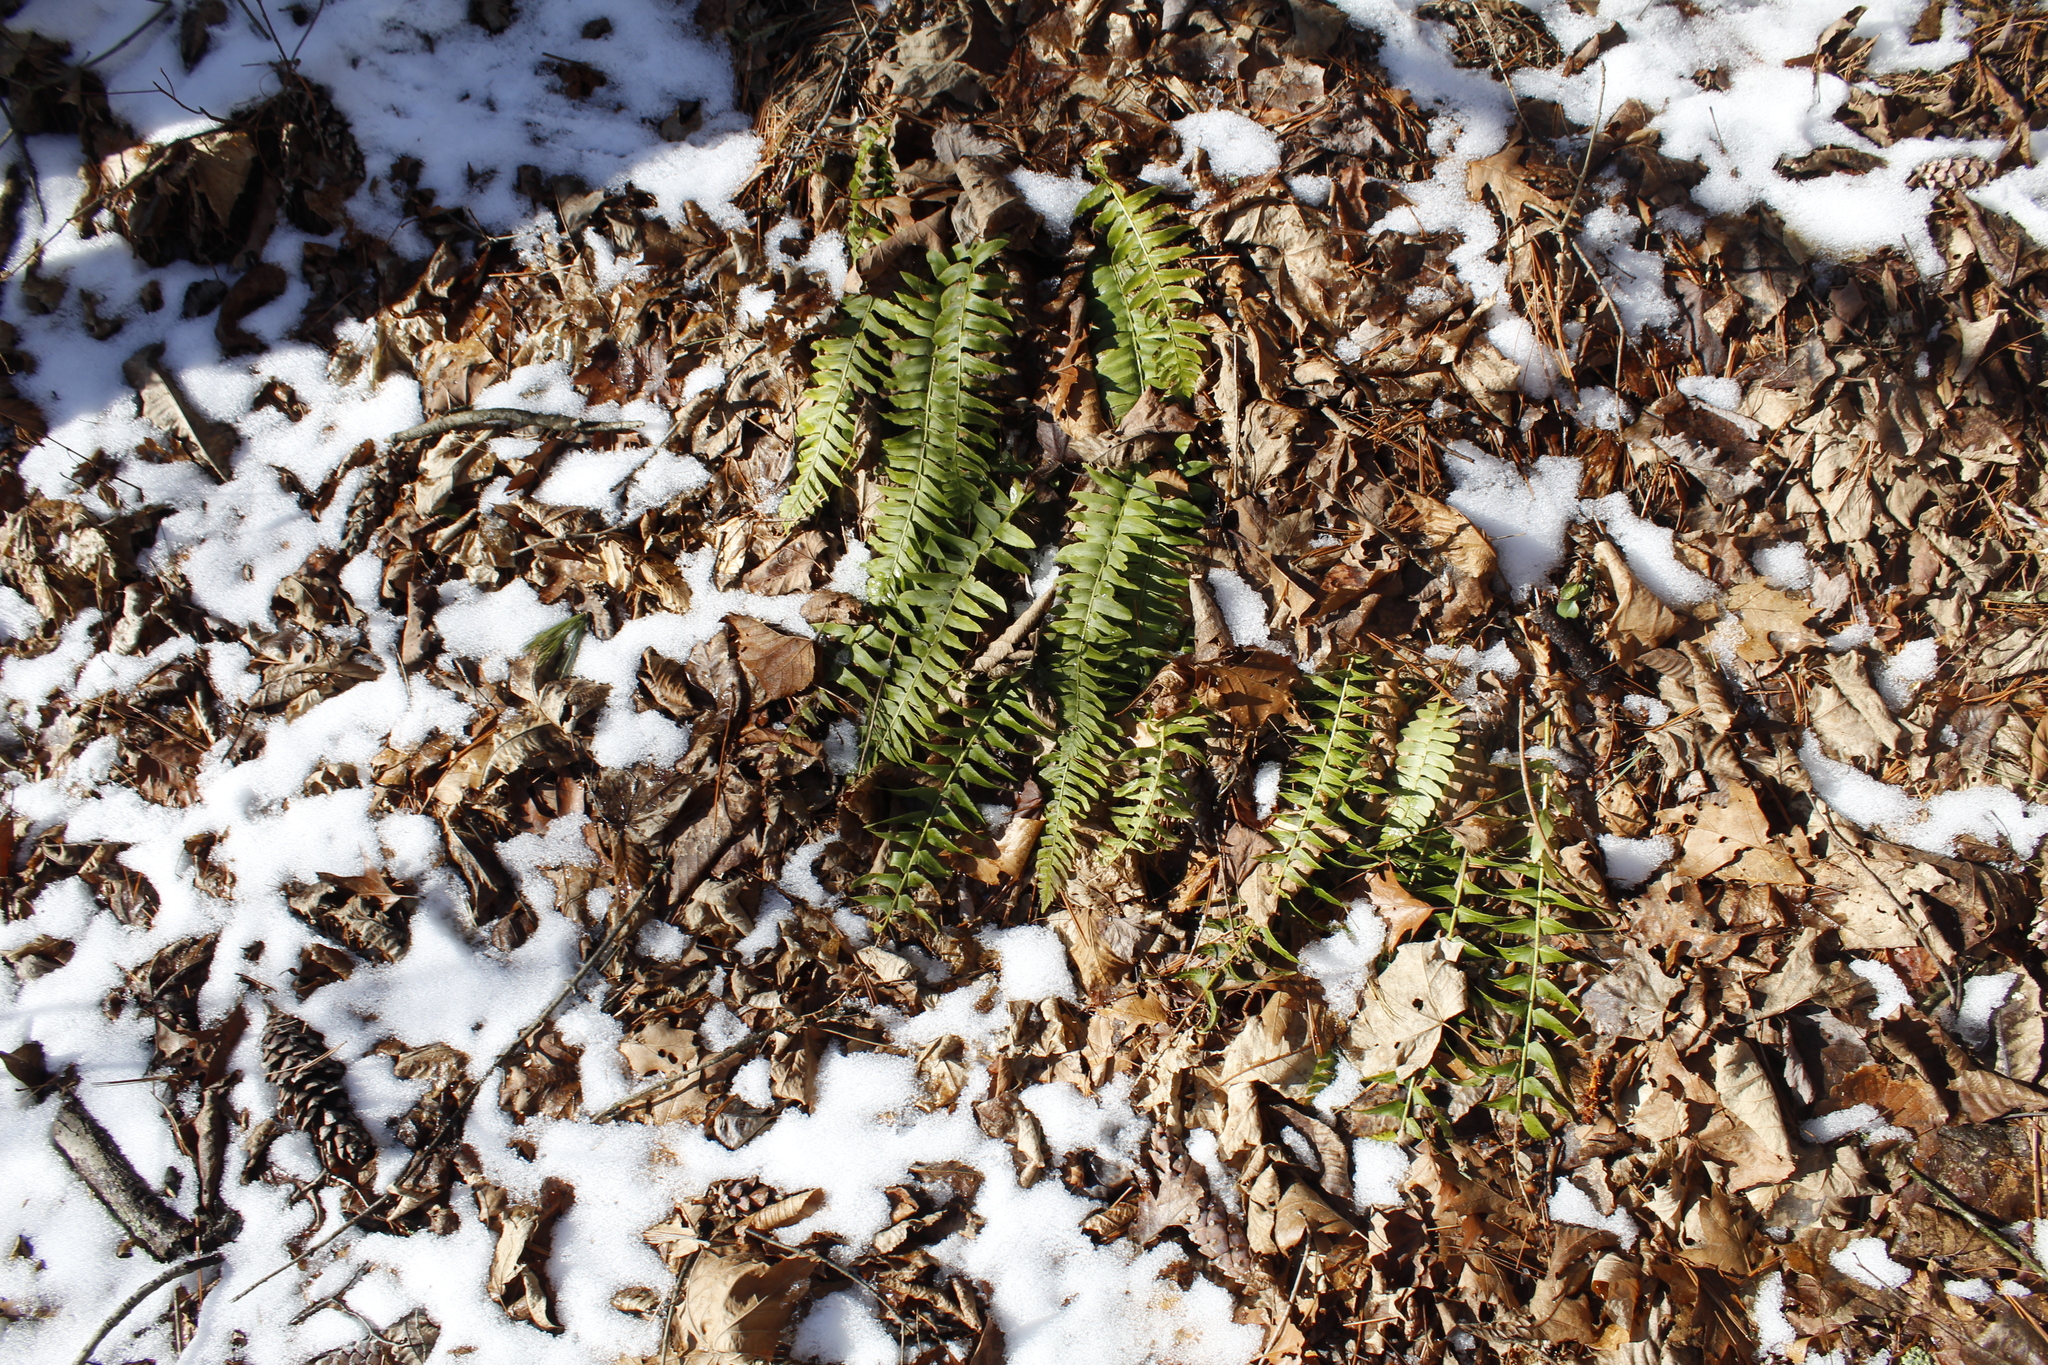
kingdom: Plantae
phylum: Tracheophyta
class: Polypodiopsida
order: Polypodiales
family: Dryopteridaceae
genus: Polystichum
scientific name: Polystichum acrostichoides
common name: Christmas fern
